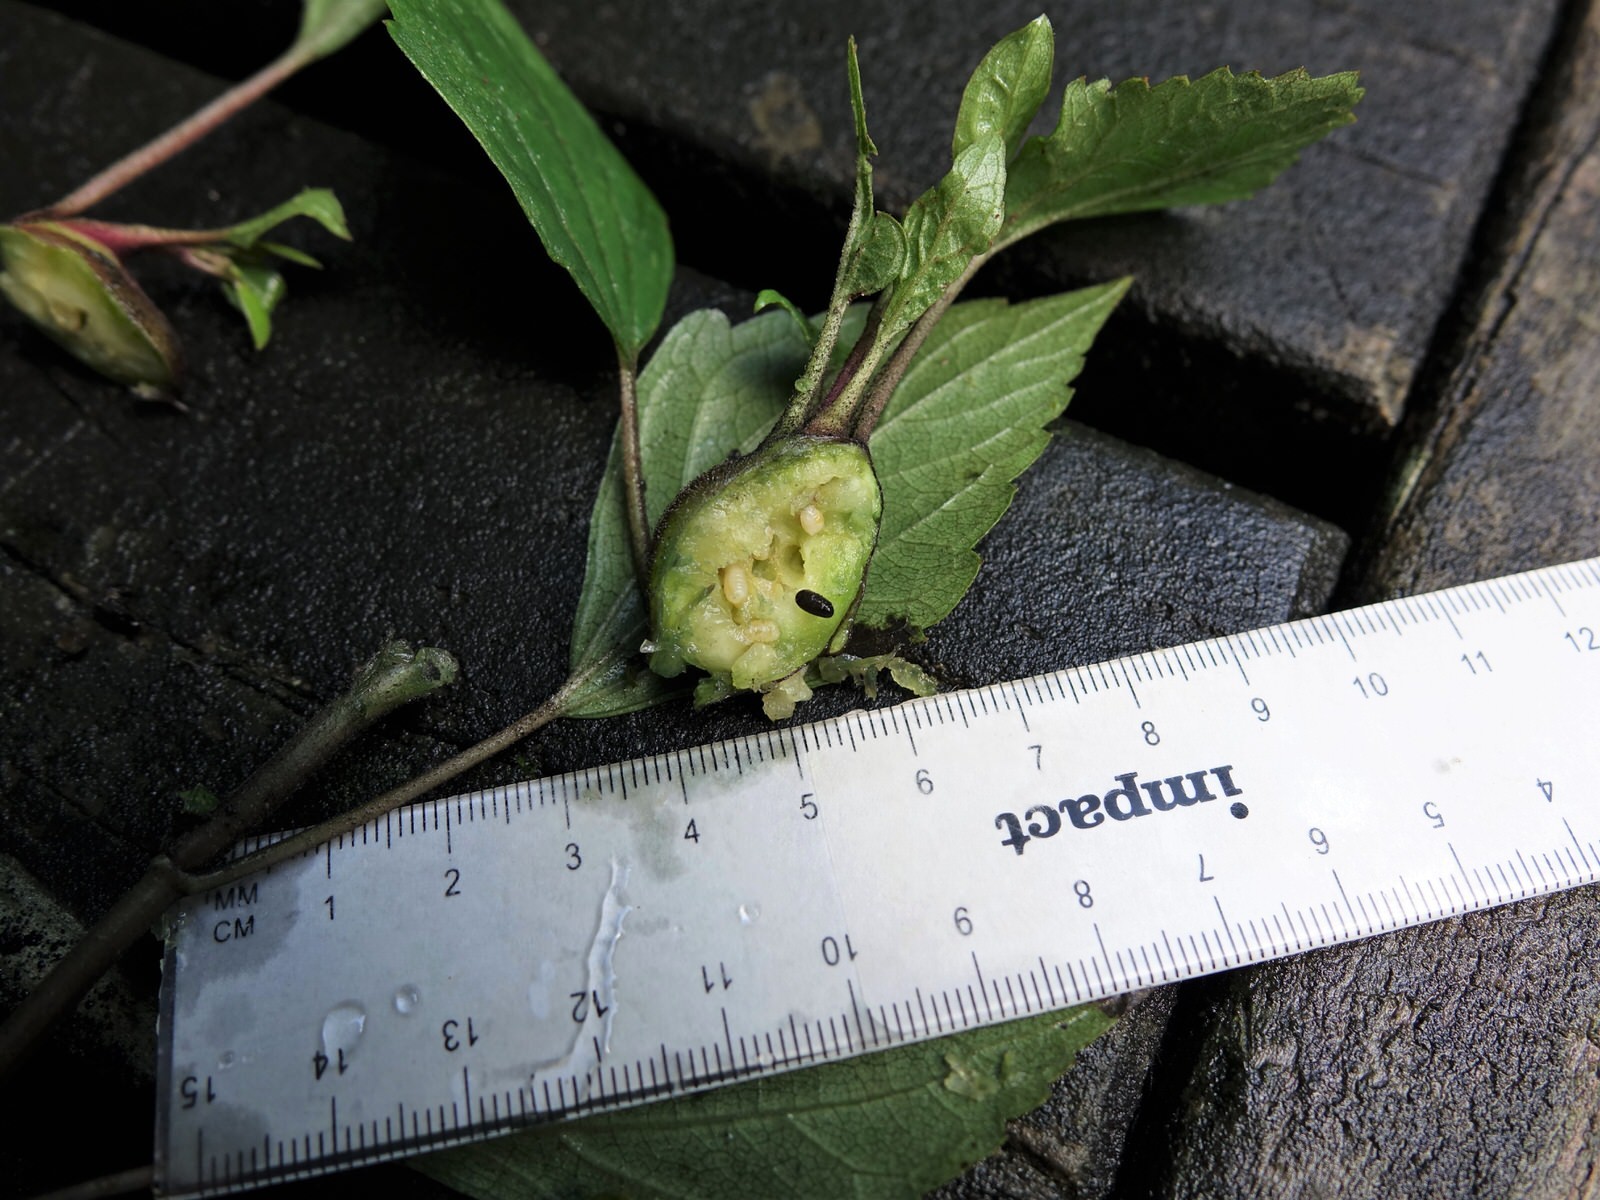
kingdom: Animalia
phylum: Arthropoda
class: Insecta
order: Diptera
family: Tephritidae
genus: Procecidochares
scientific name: Procecidochares utilis
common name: Eupatorium gall fly
